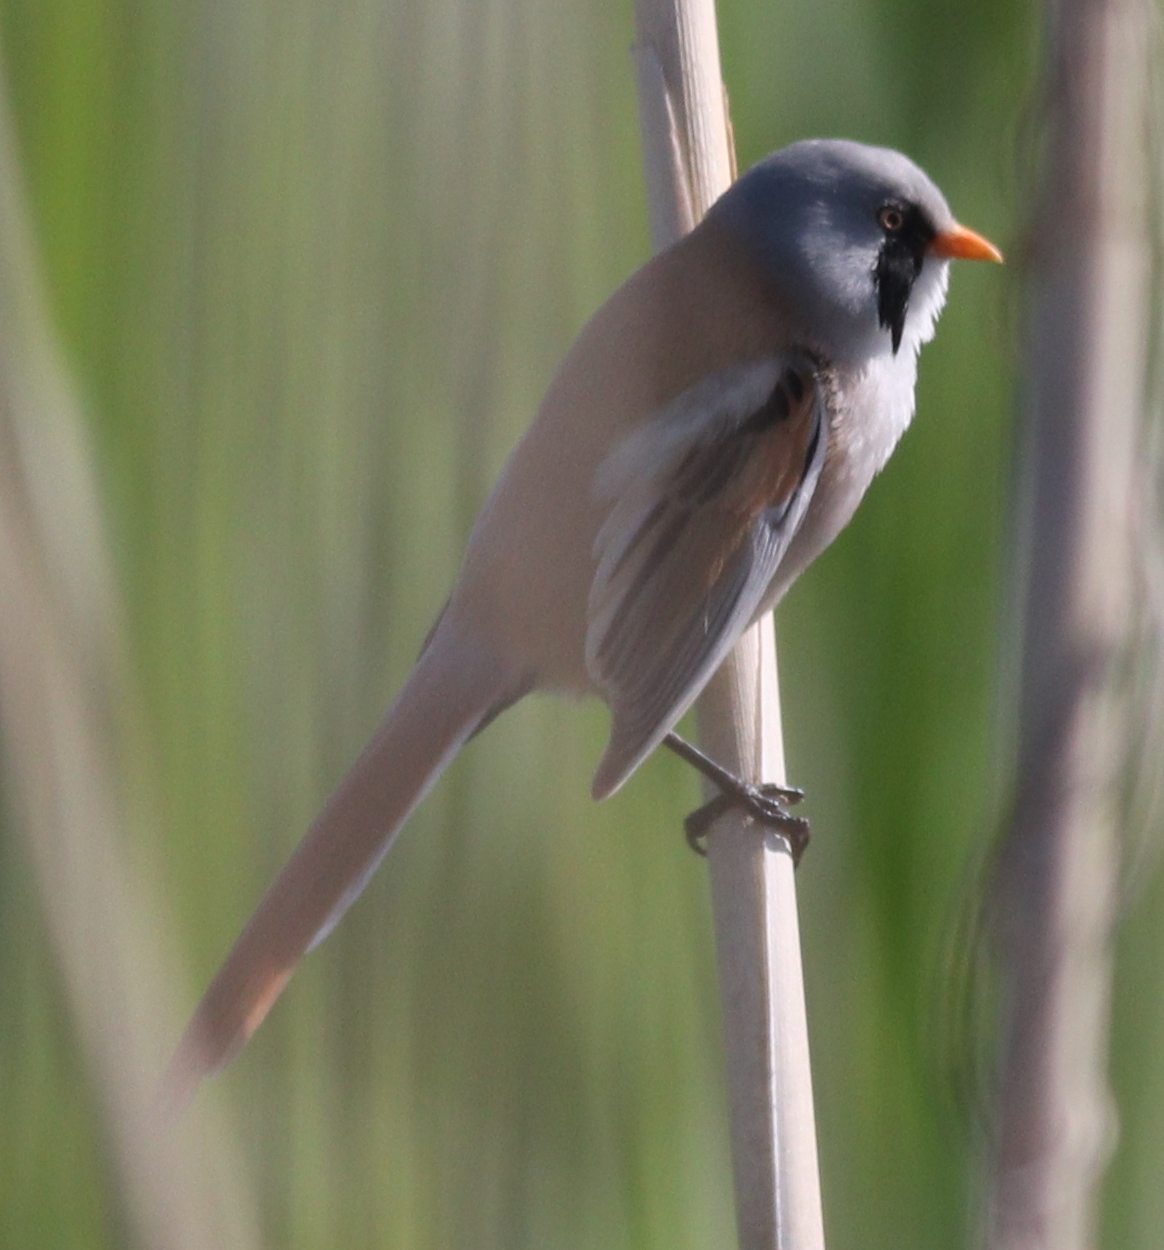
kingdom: Animalia
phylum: Chordata
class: Aves
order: Passeriformes
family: Panuridae
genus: Panurus
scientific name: Panurus biarmicus
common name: Bearded reedling
